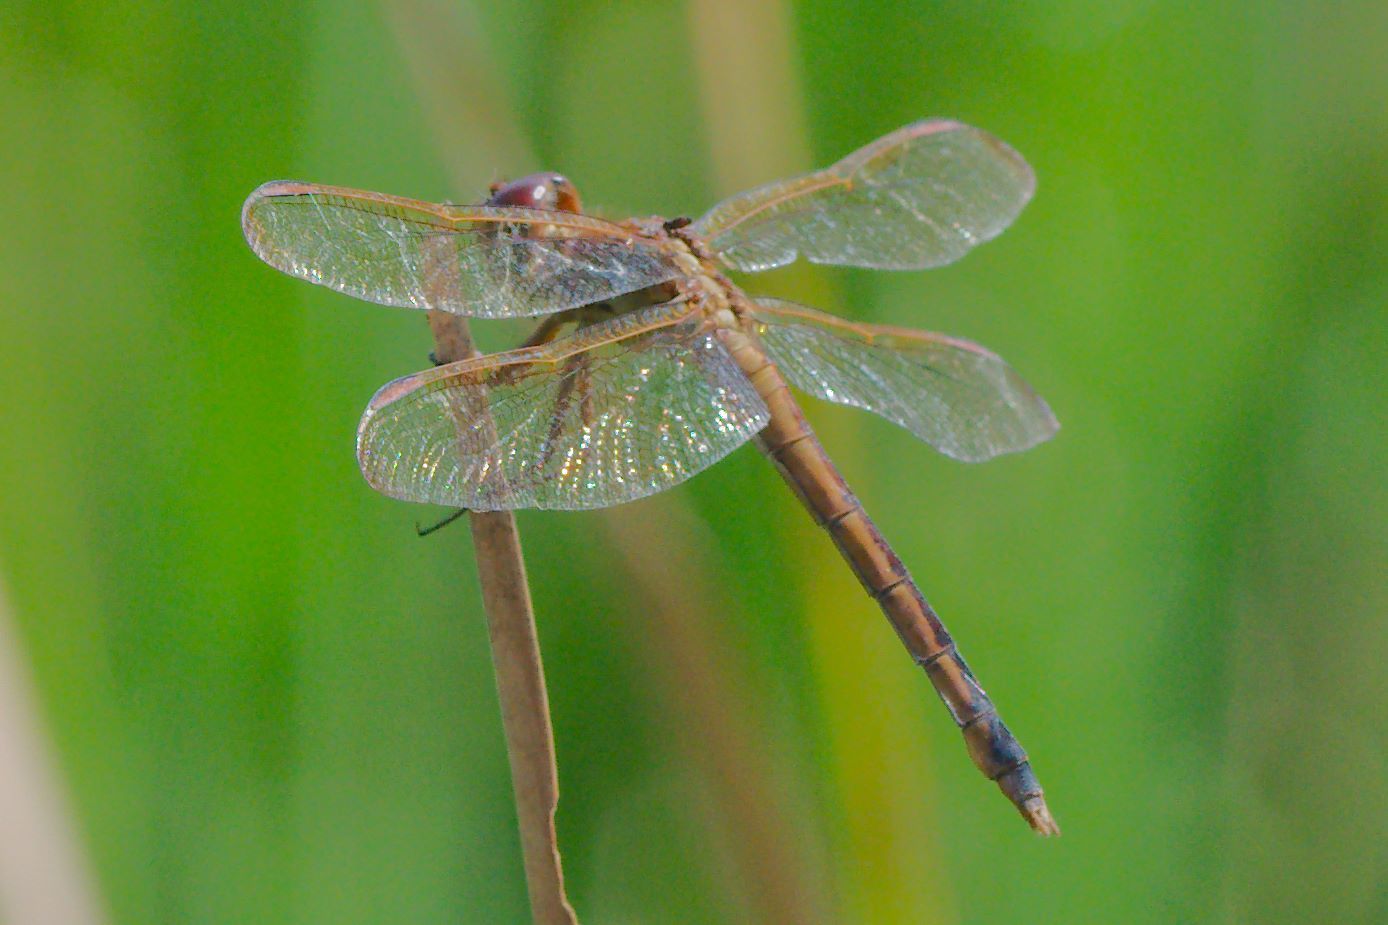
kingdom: Animalia
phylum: Arthropoda
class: Insecta
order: Odonata
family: Libellulidae
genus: Libellula
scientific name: Libellula needhami
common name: Needham's skimmer
